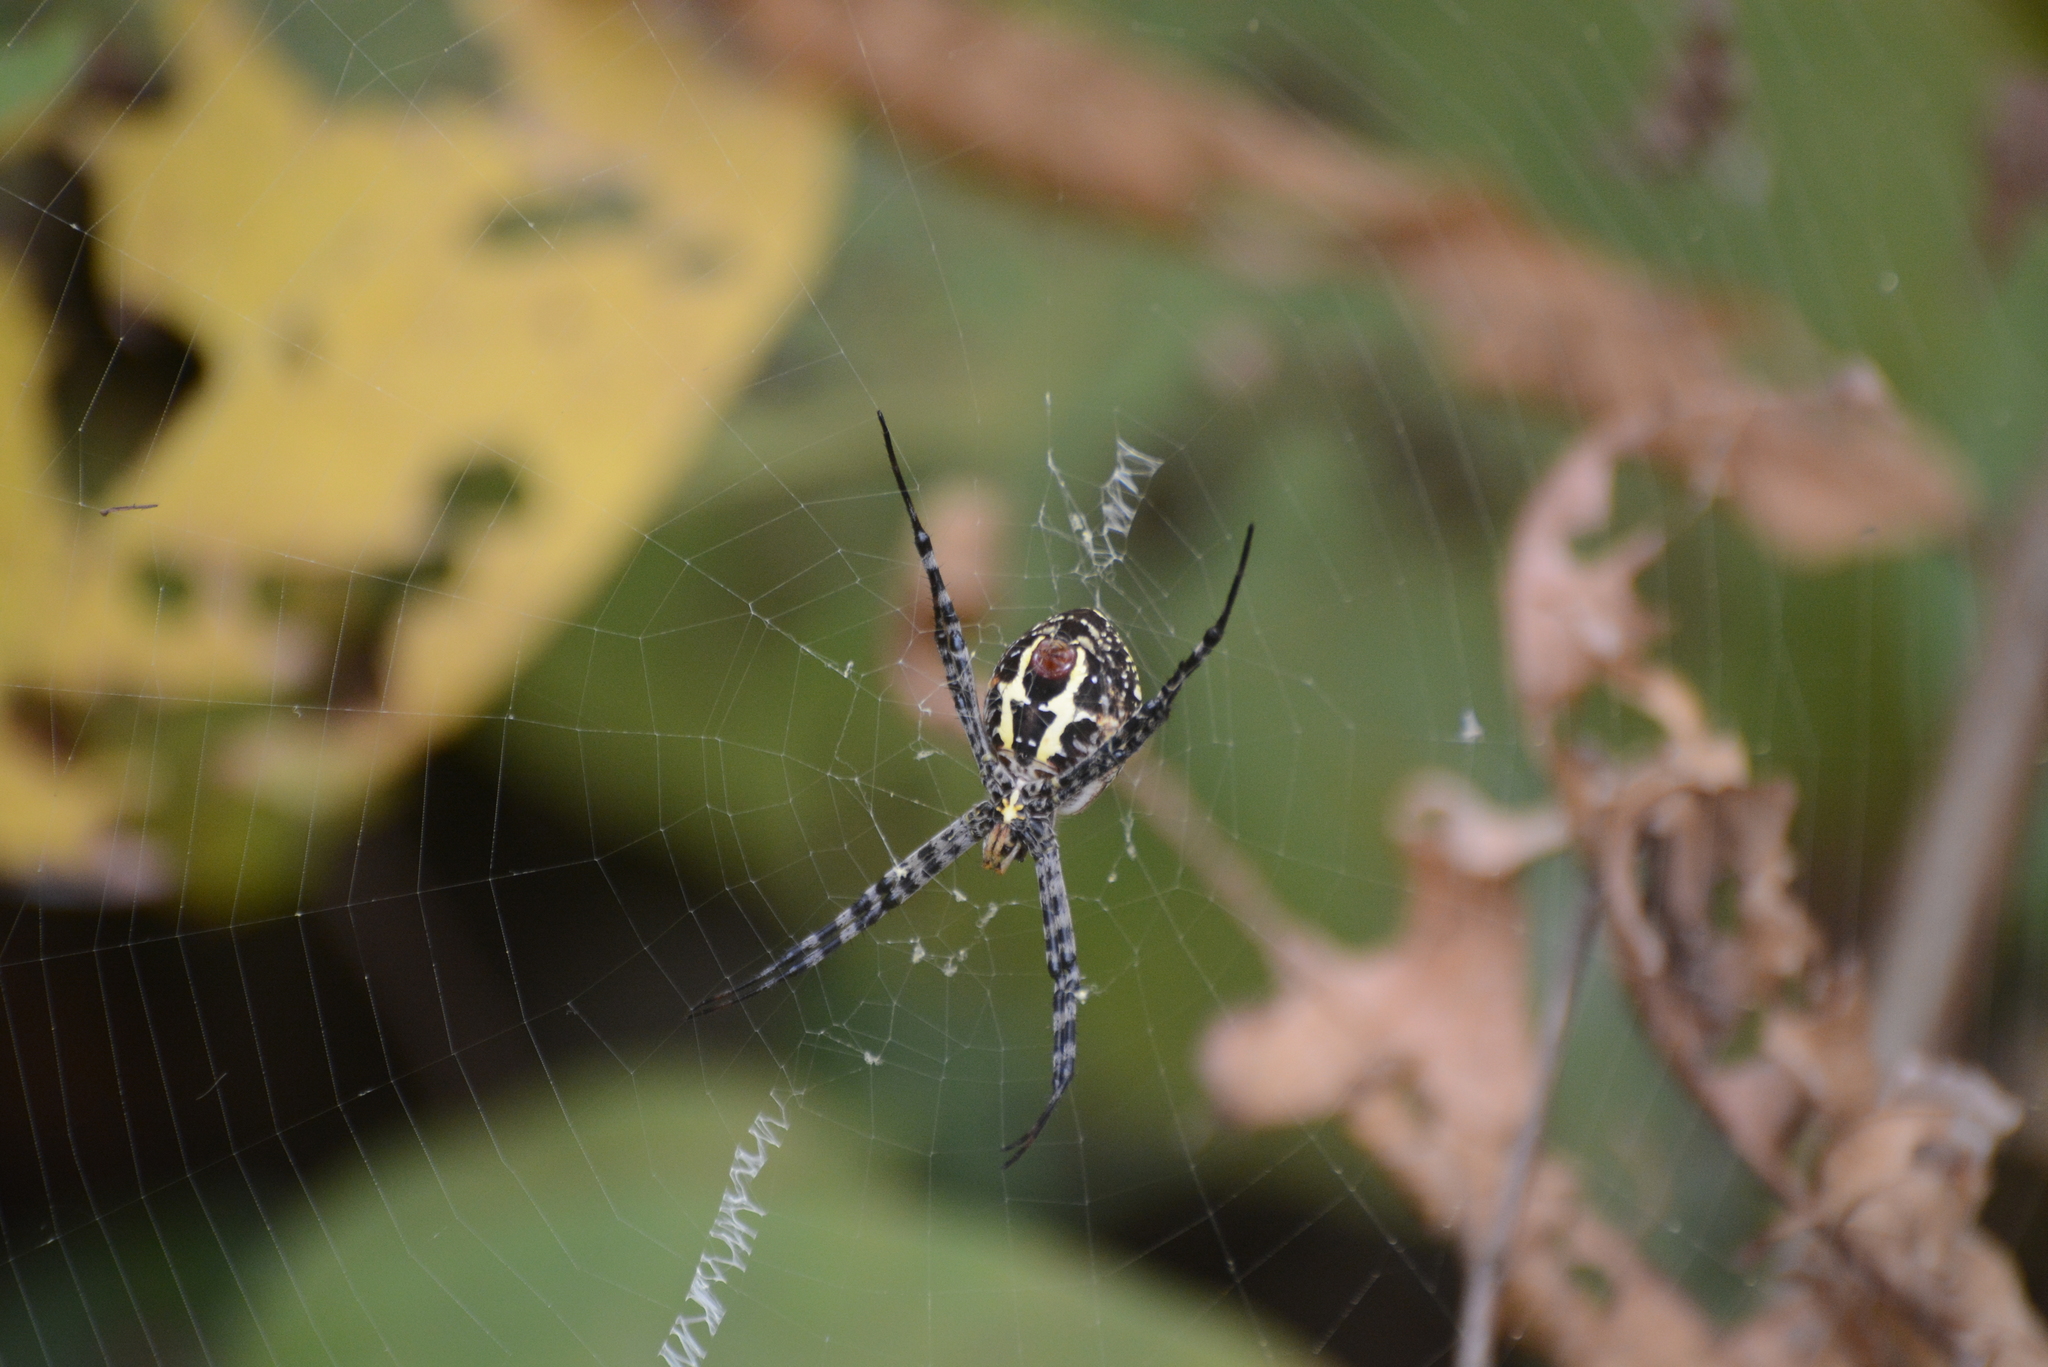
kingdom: Animalia
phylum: Arthropoda
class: Arachnida
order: Araneae
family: Araneidae
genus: Argiope
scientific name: Argiope aemula
